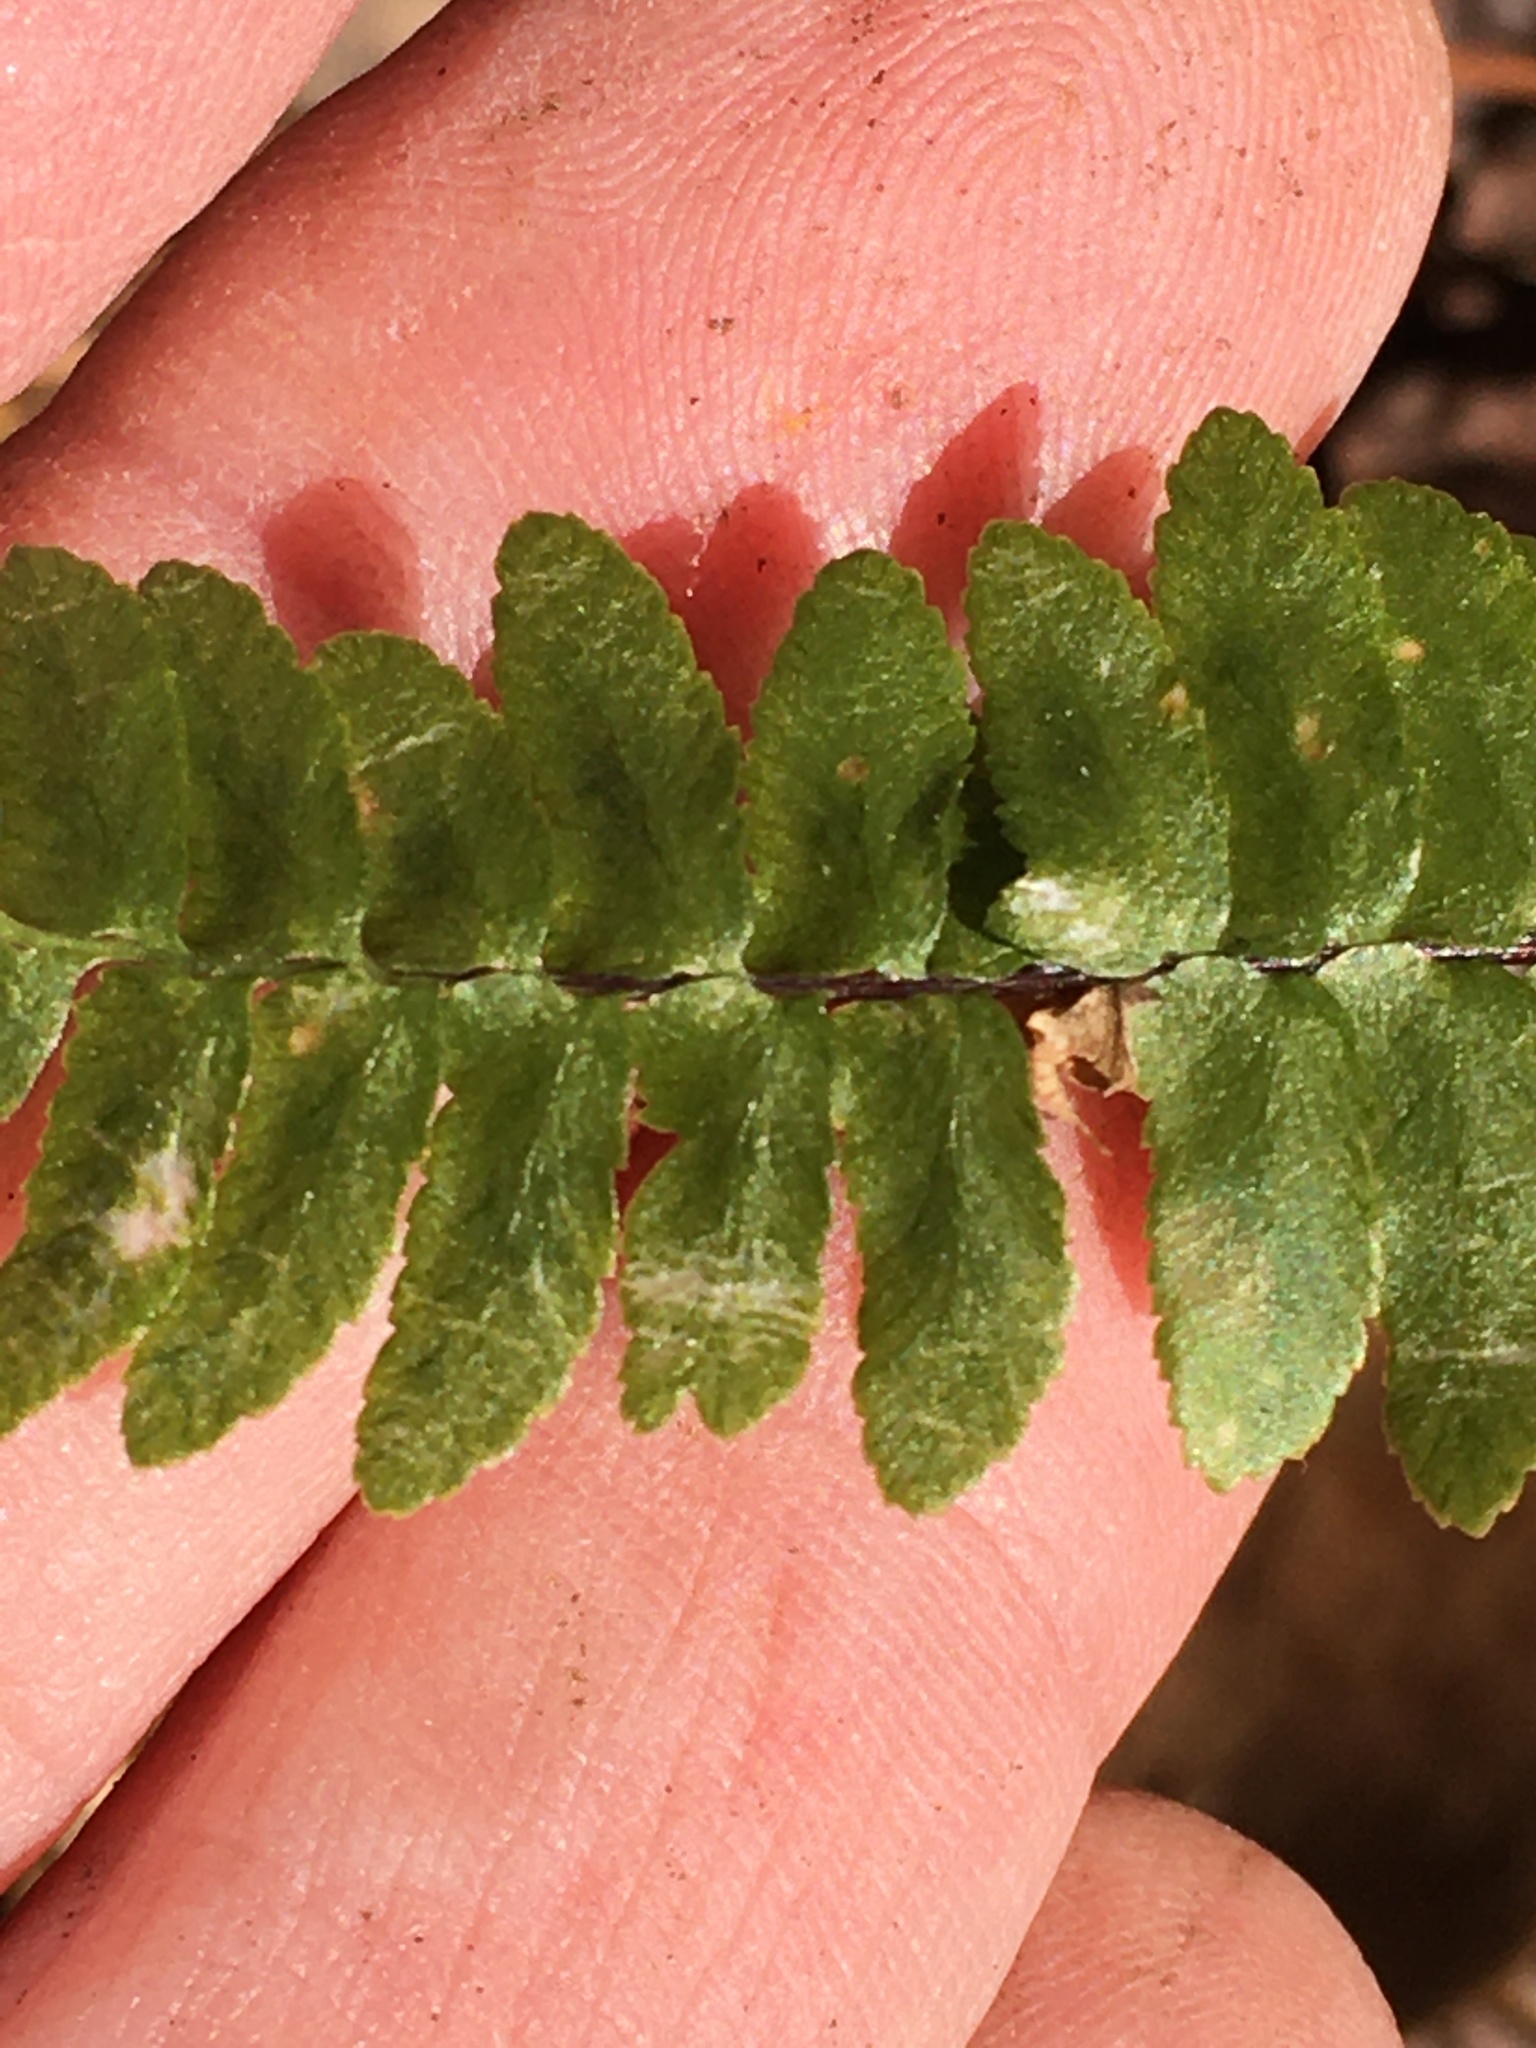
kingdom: Plantae
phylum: Tracheophyta
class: Polypodiopsida
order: Polypodiales
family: Aspleniaceae
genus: Asplenium
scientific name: Asplenium platyneuron
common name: Ebony spleenwort
